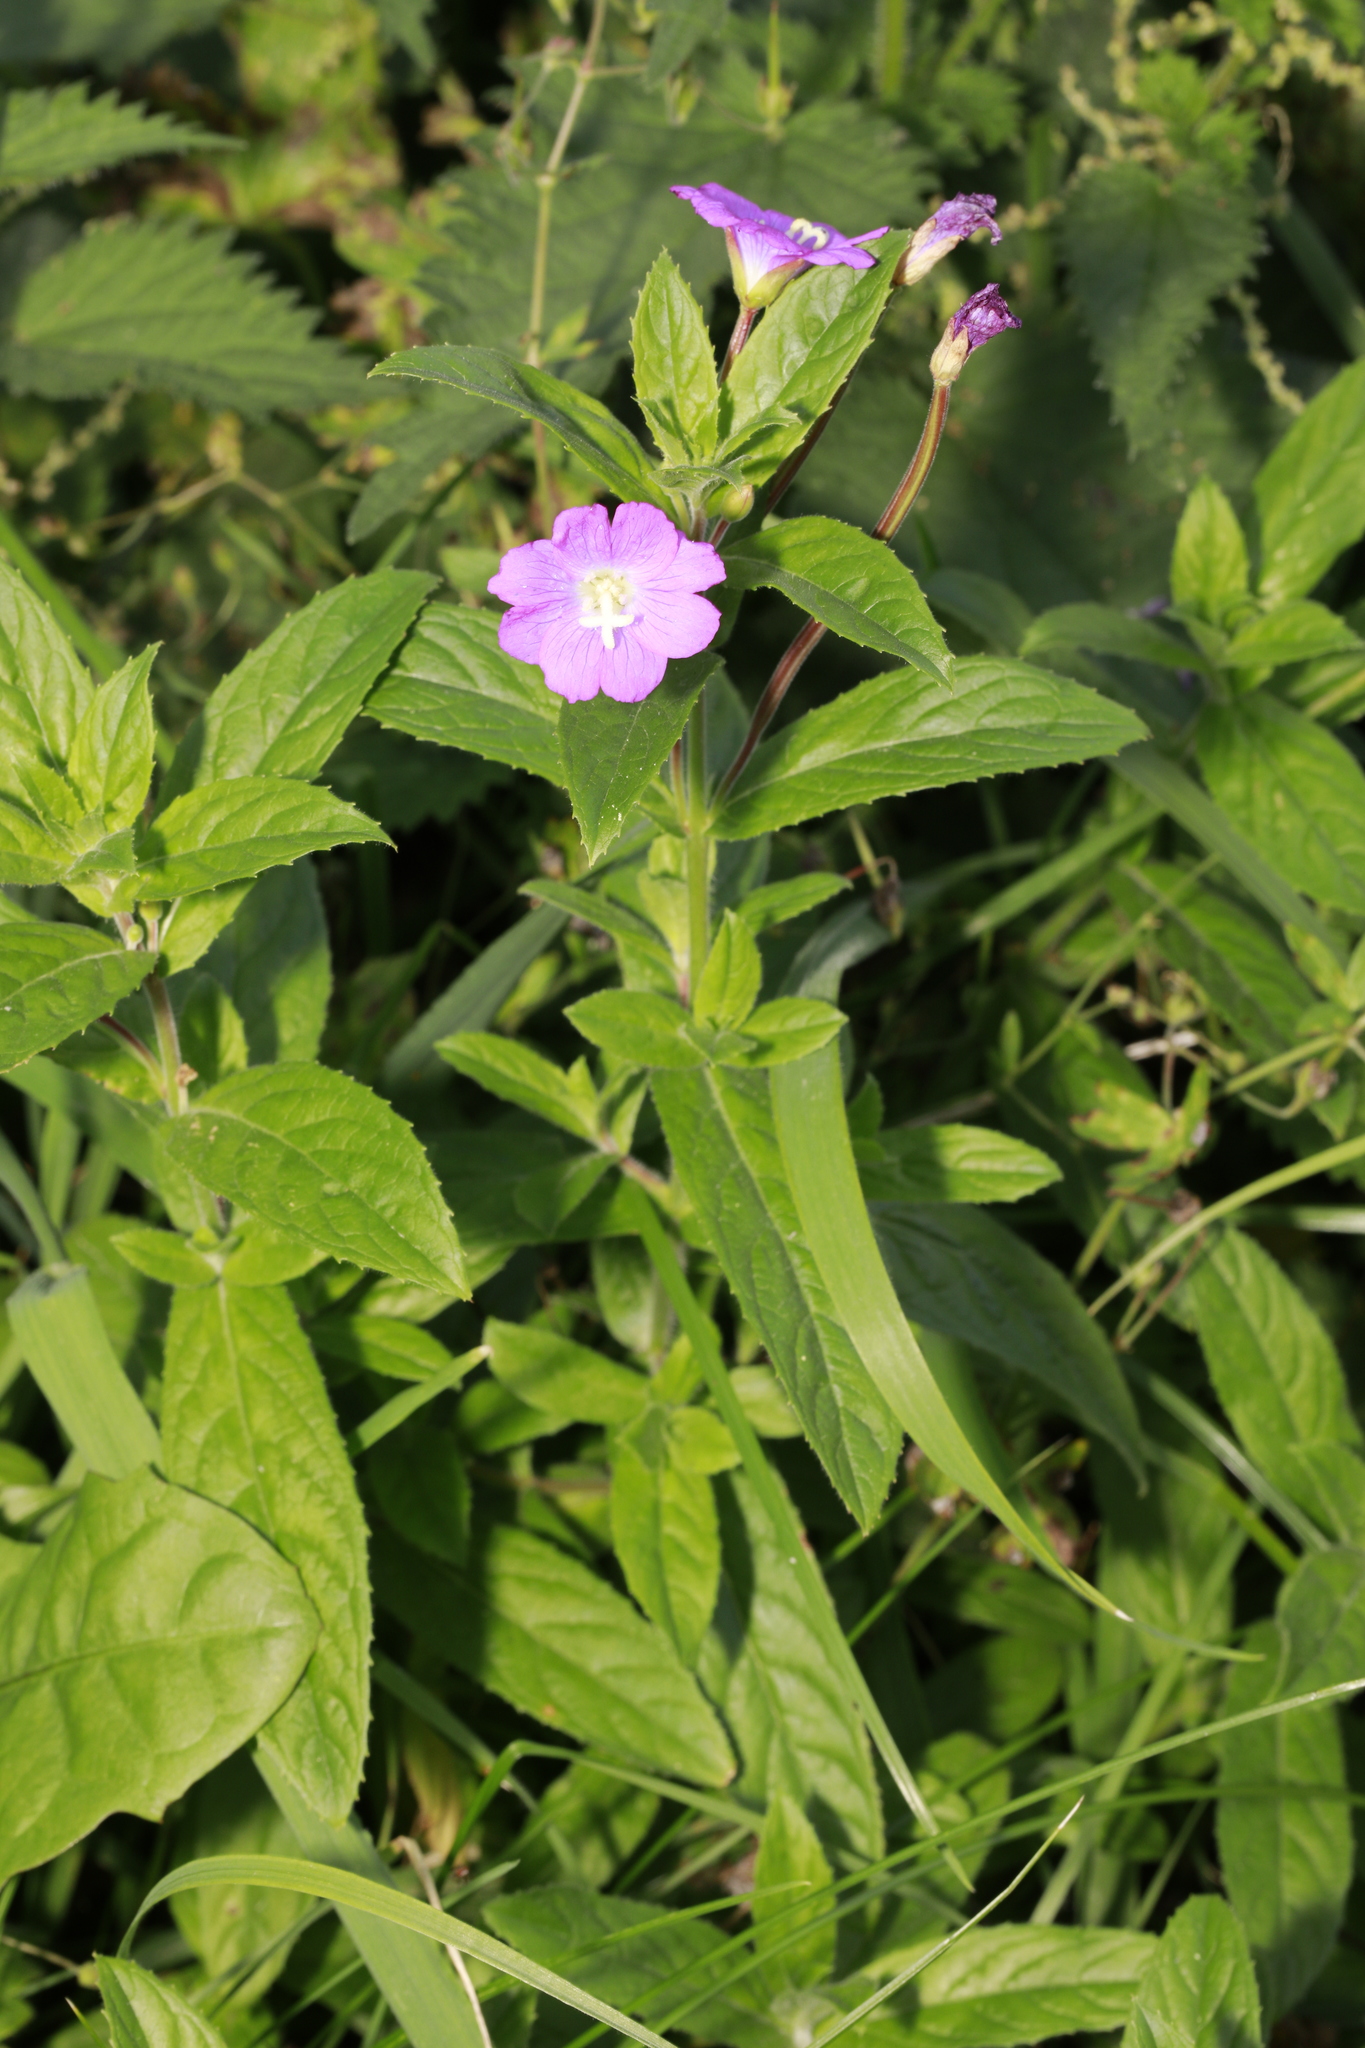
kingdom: Plantae
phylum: Tracheophyta
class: Magnoliopsida
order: Myrtales
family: Onagraceae
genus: Epilobium
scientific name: Epilobium hirsutum
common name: Great willowherb
